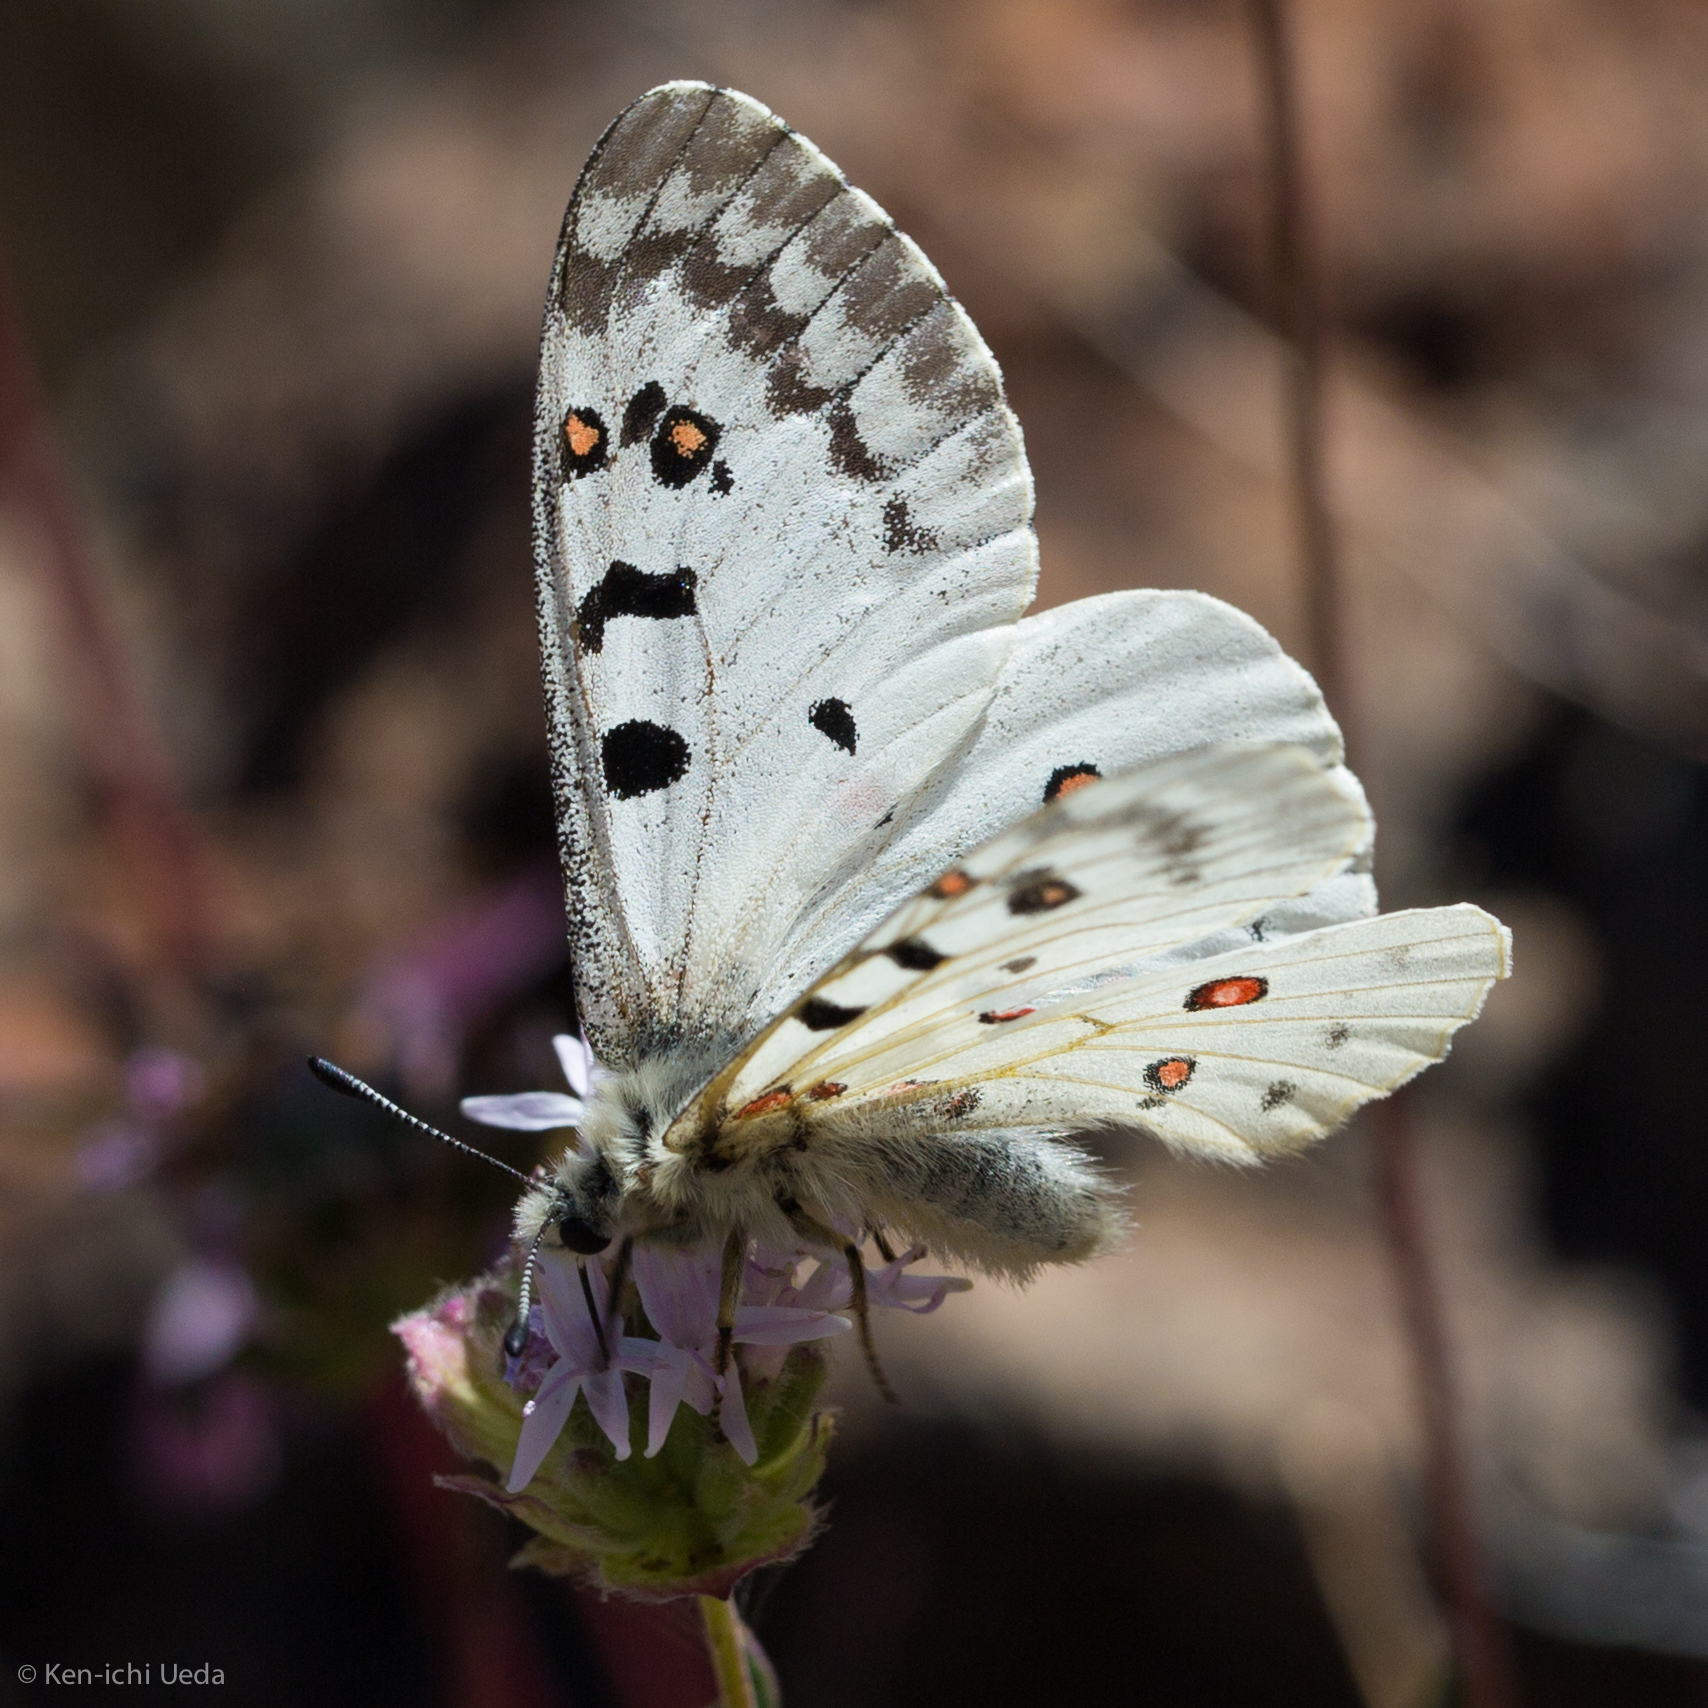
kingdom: Animalia
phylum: Arthropoda
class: Insecta
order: Lepidoptera
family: Papilionidae
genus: Parnassius
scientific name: Parnassius smintheus
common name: Mountain parnassian
